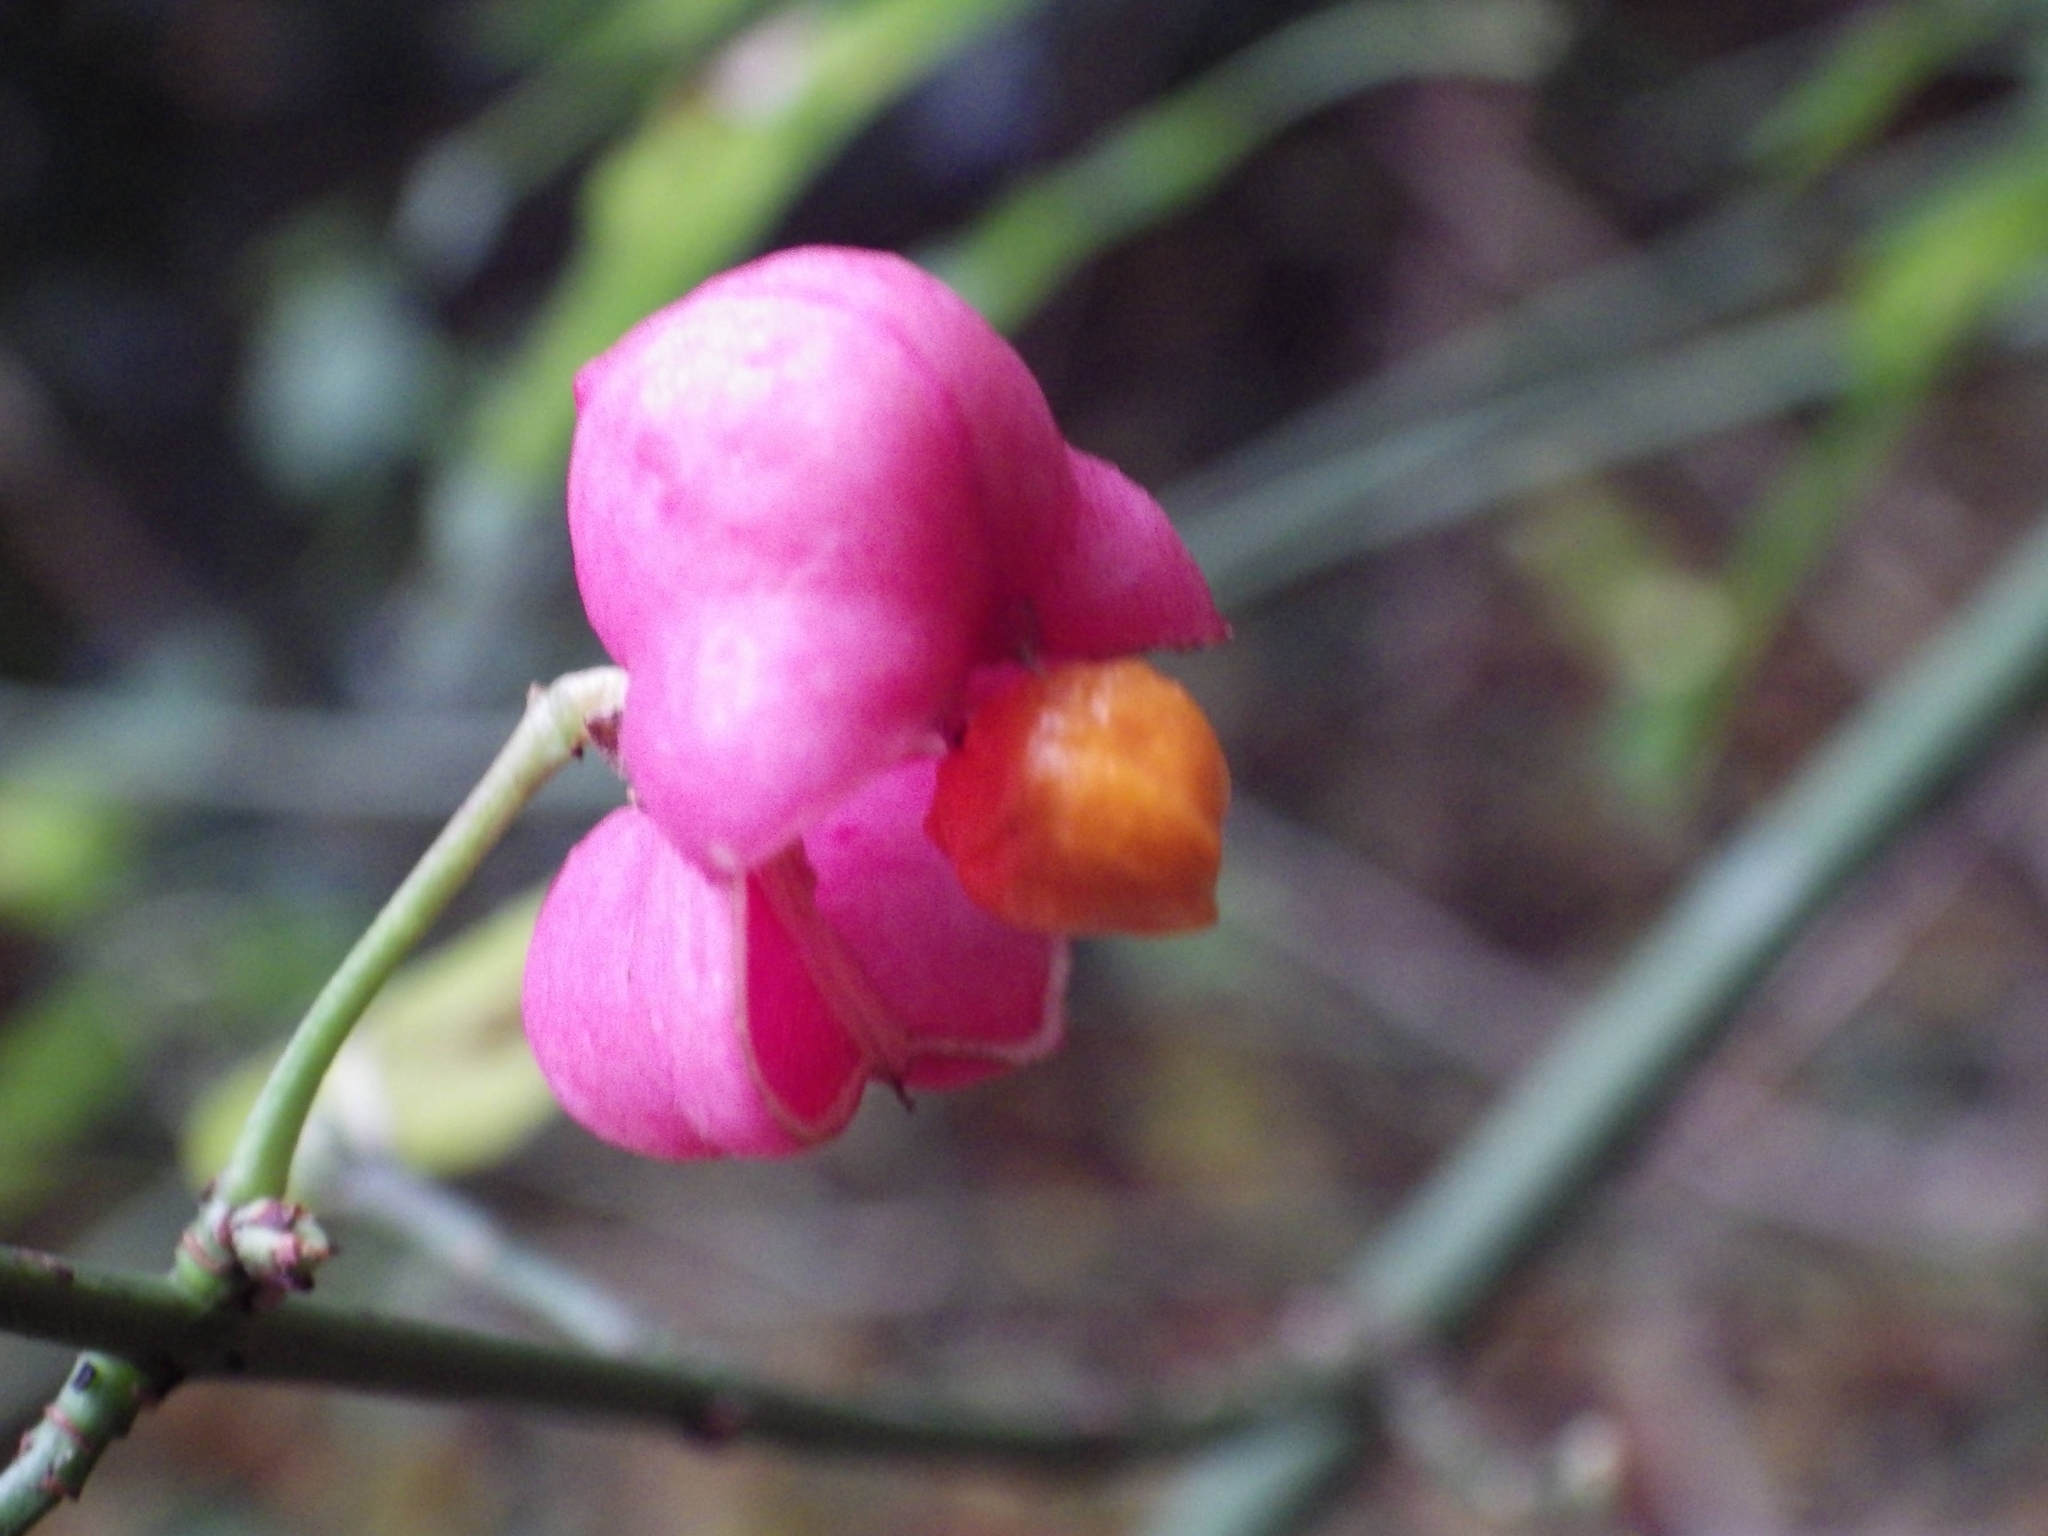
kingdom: Plantae
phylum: Tracheophyta
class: Magnoliopsida
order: Celastrales
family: Celastraceae
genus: Euonymus
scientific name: Euonymus europaeus
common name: Spindle
